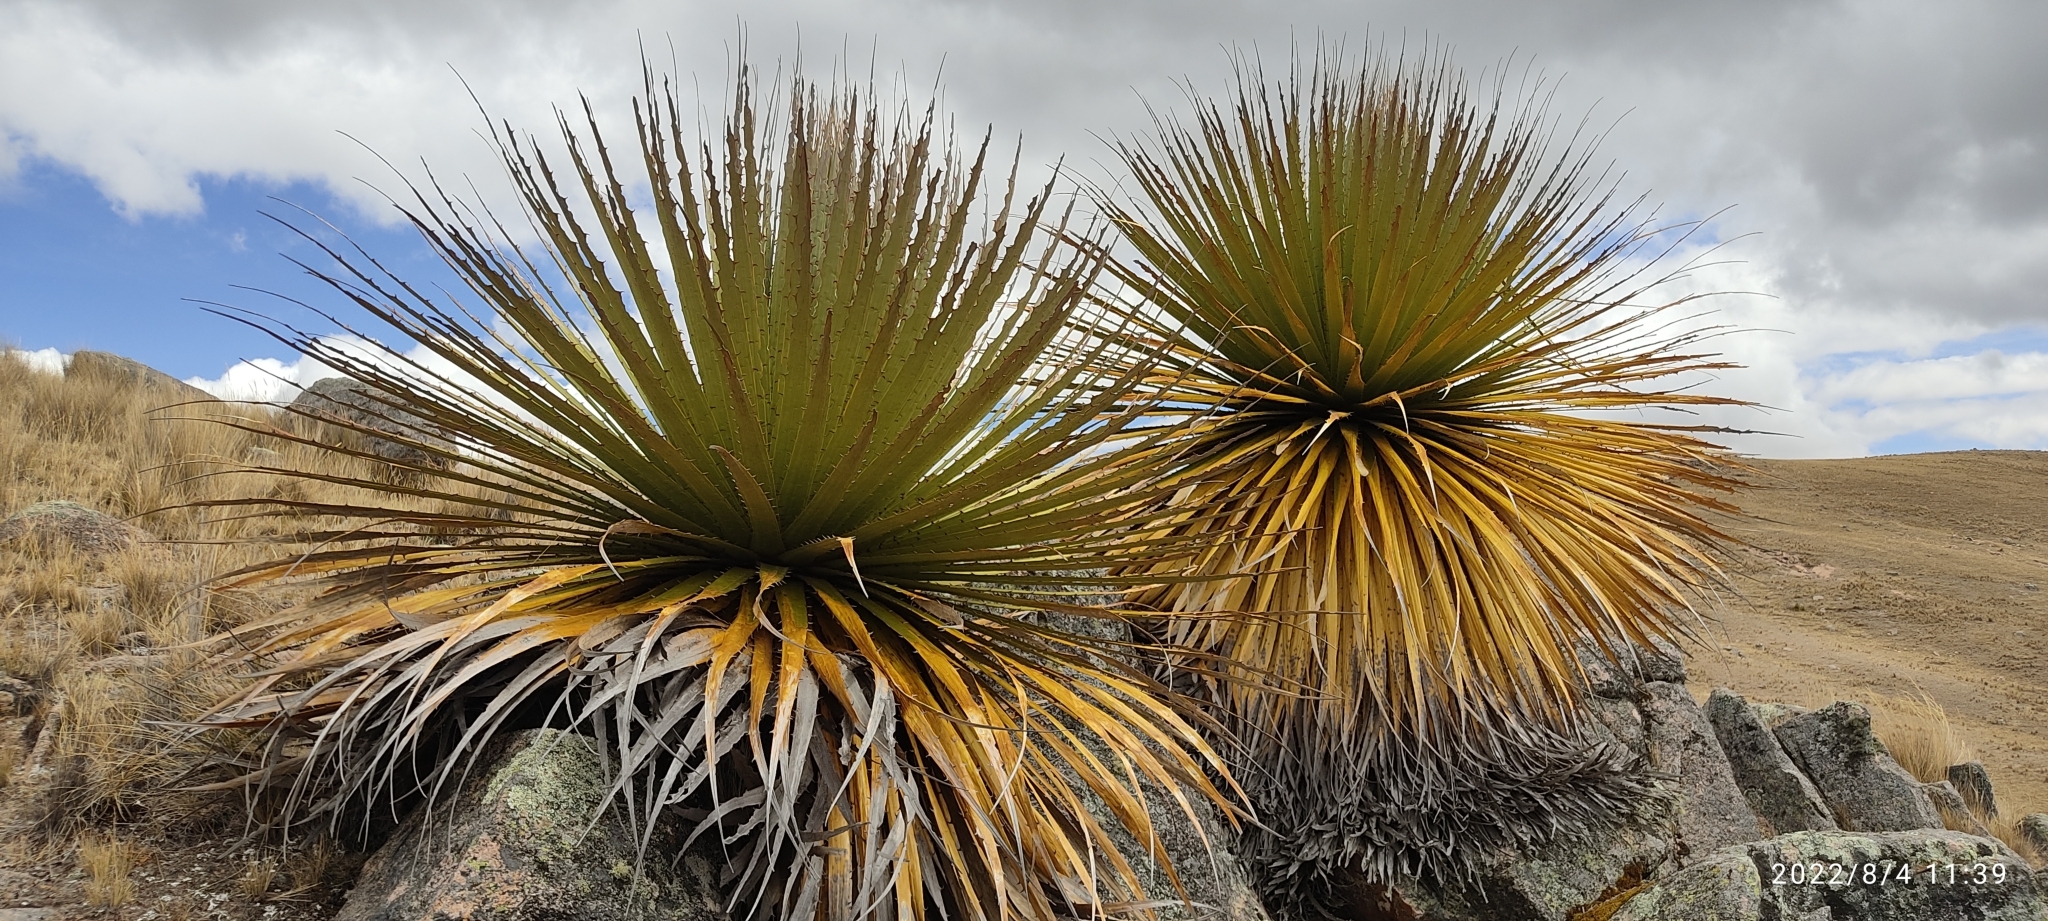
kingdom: Plantae
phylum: Tracheophyta
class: Liliopsida
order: Poales
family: Bromeliaceae
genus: Puya
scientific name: Puya raimondii
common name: Queen of the andes
